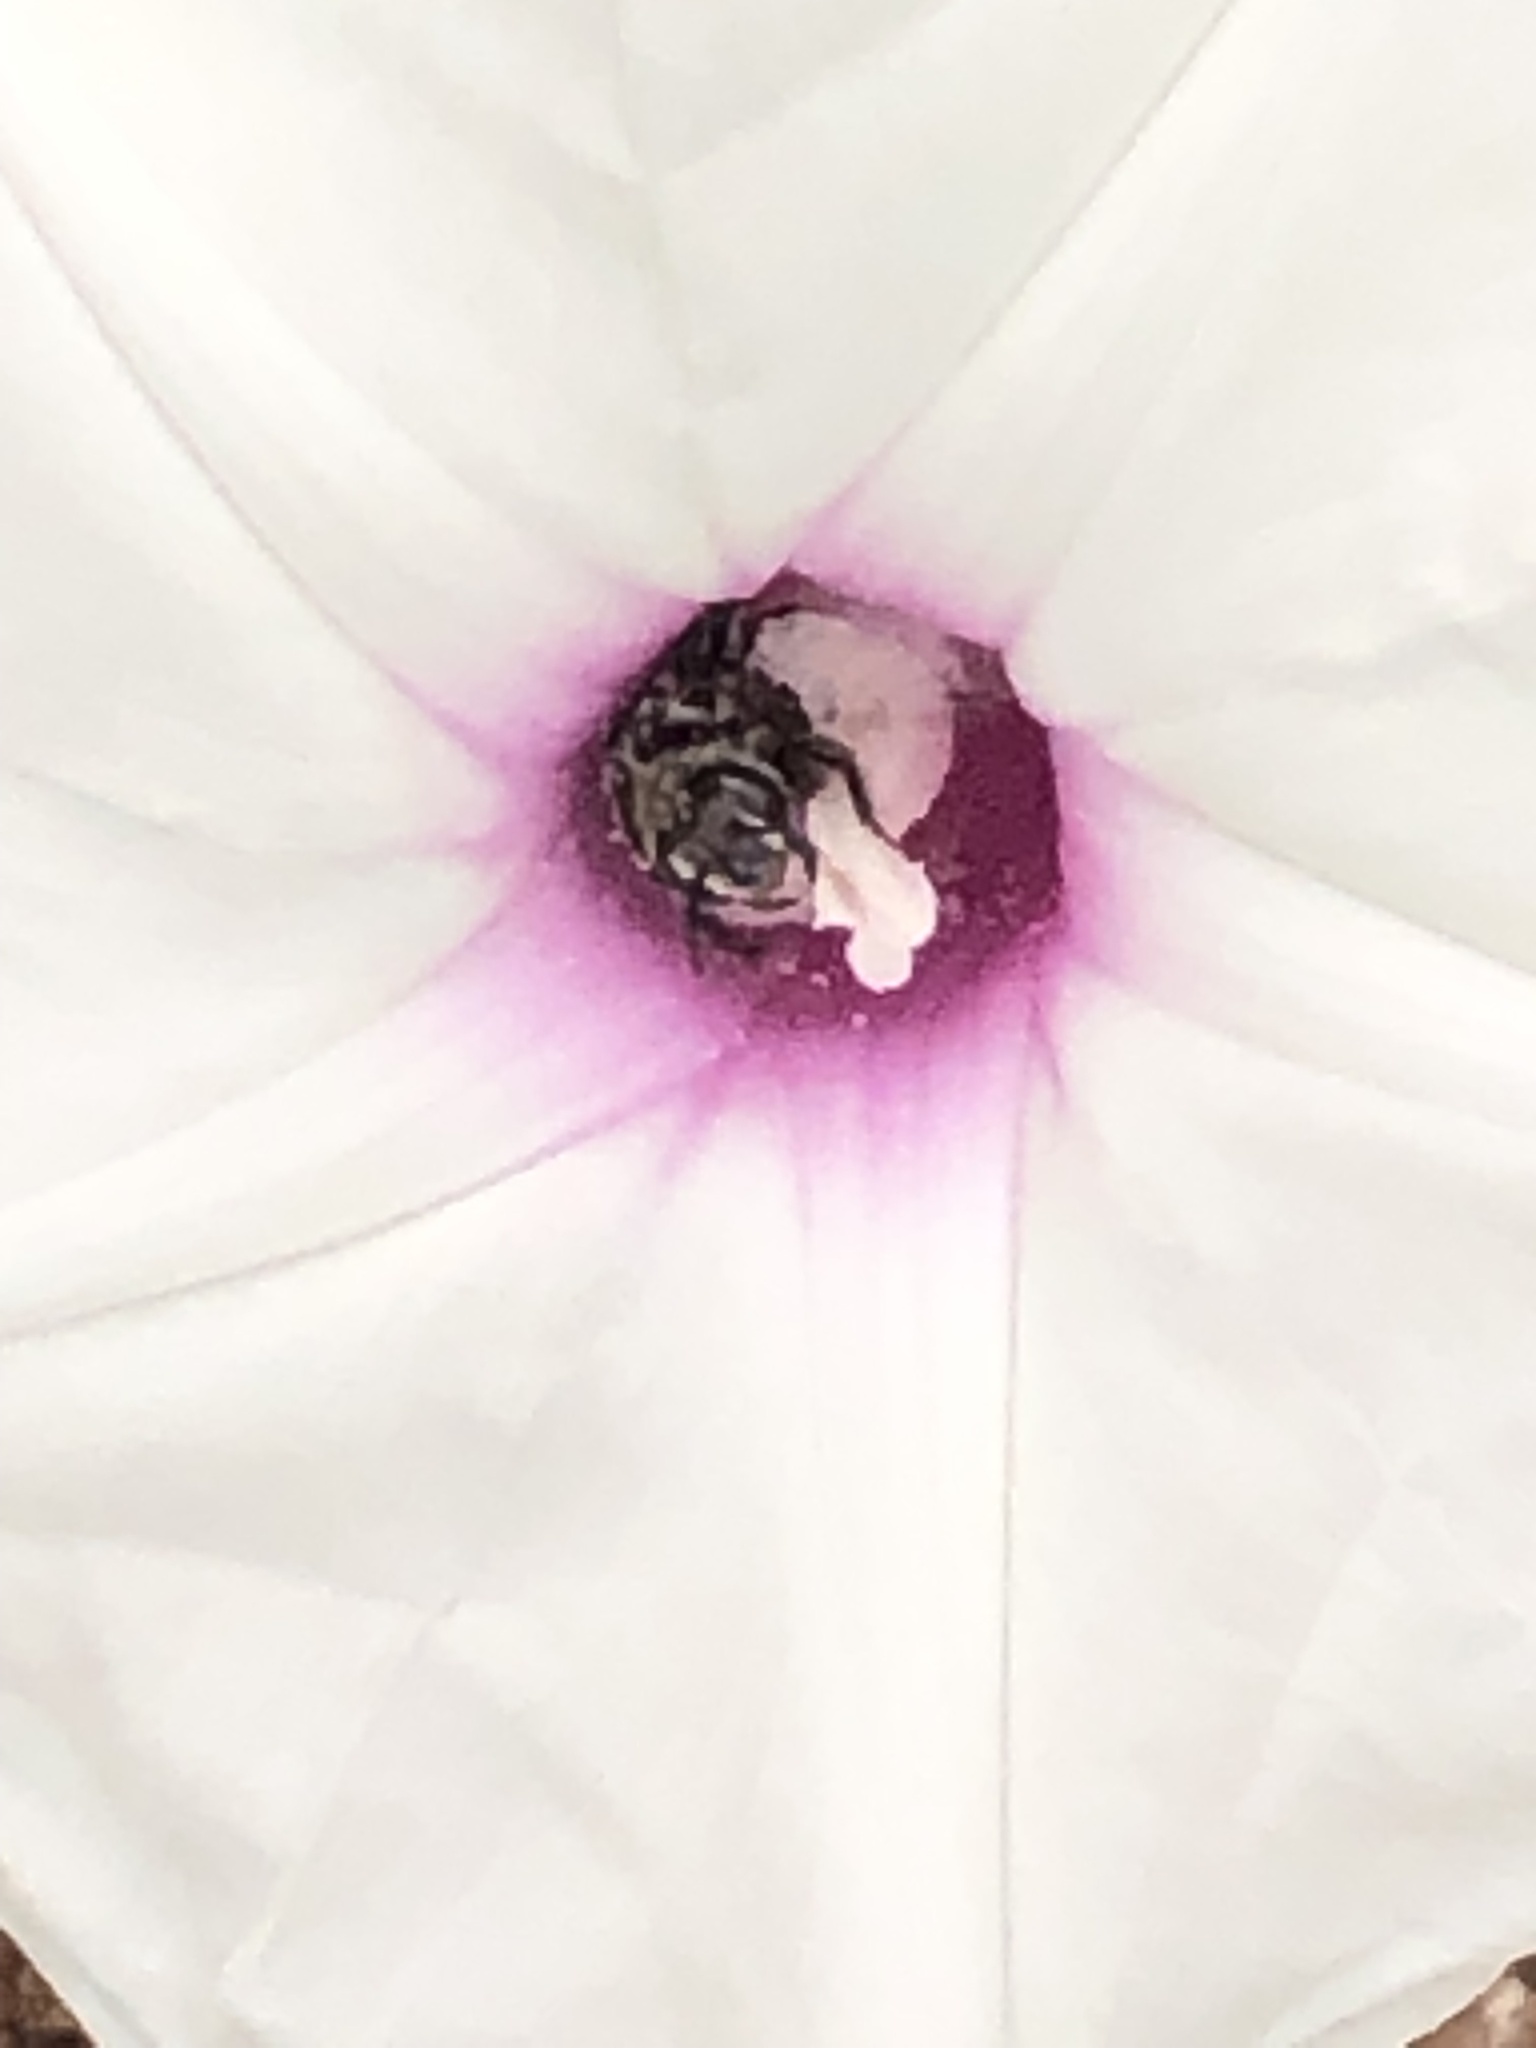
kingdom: Animalia
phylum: Arthropoda
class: Insecta
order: Hymenoptera
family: Apidae
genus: Melitoma
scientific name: Melitoma taurea
